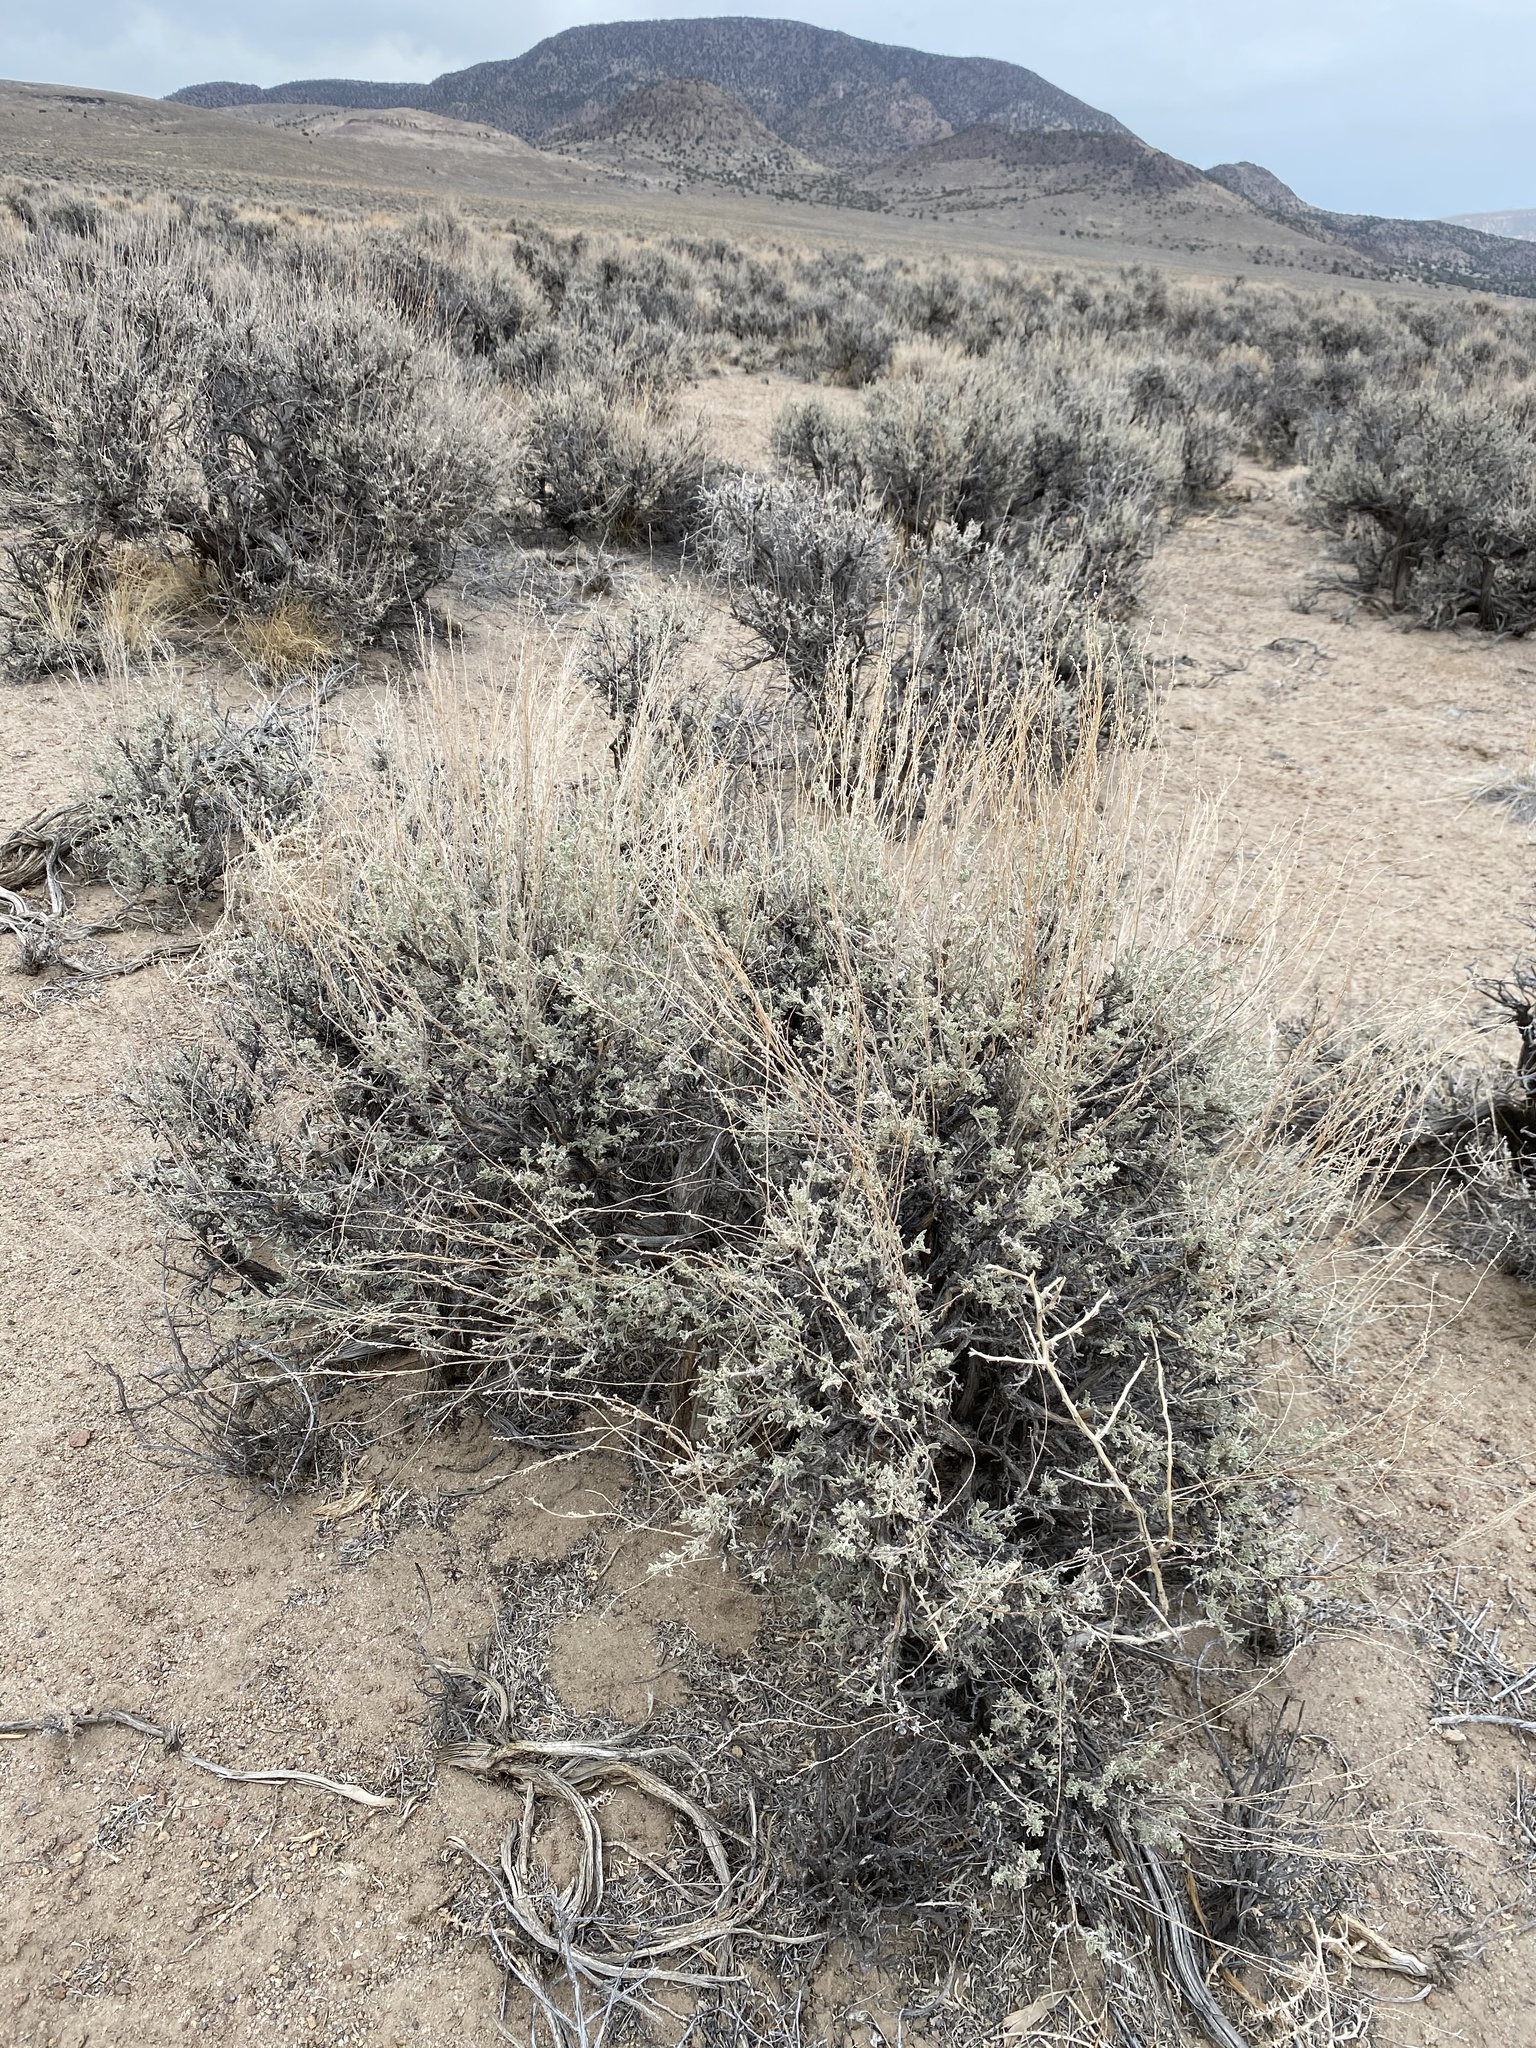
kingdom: Plantae
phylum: Tracheophyta
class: Magnoliopsida
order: Asterales
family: Asteraceae
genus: Artemisia
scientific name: Artemisia tridentata
